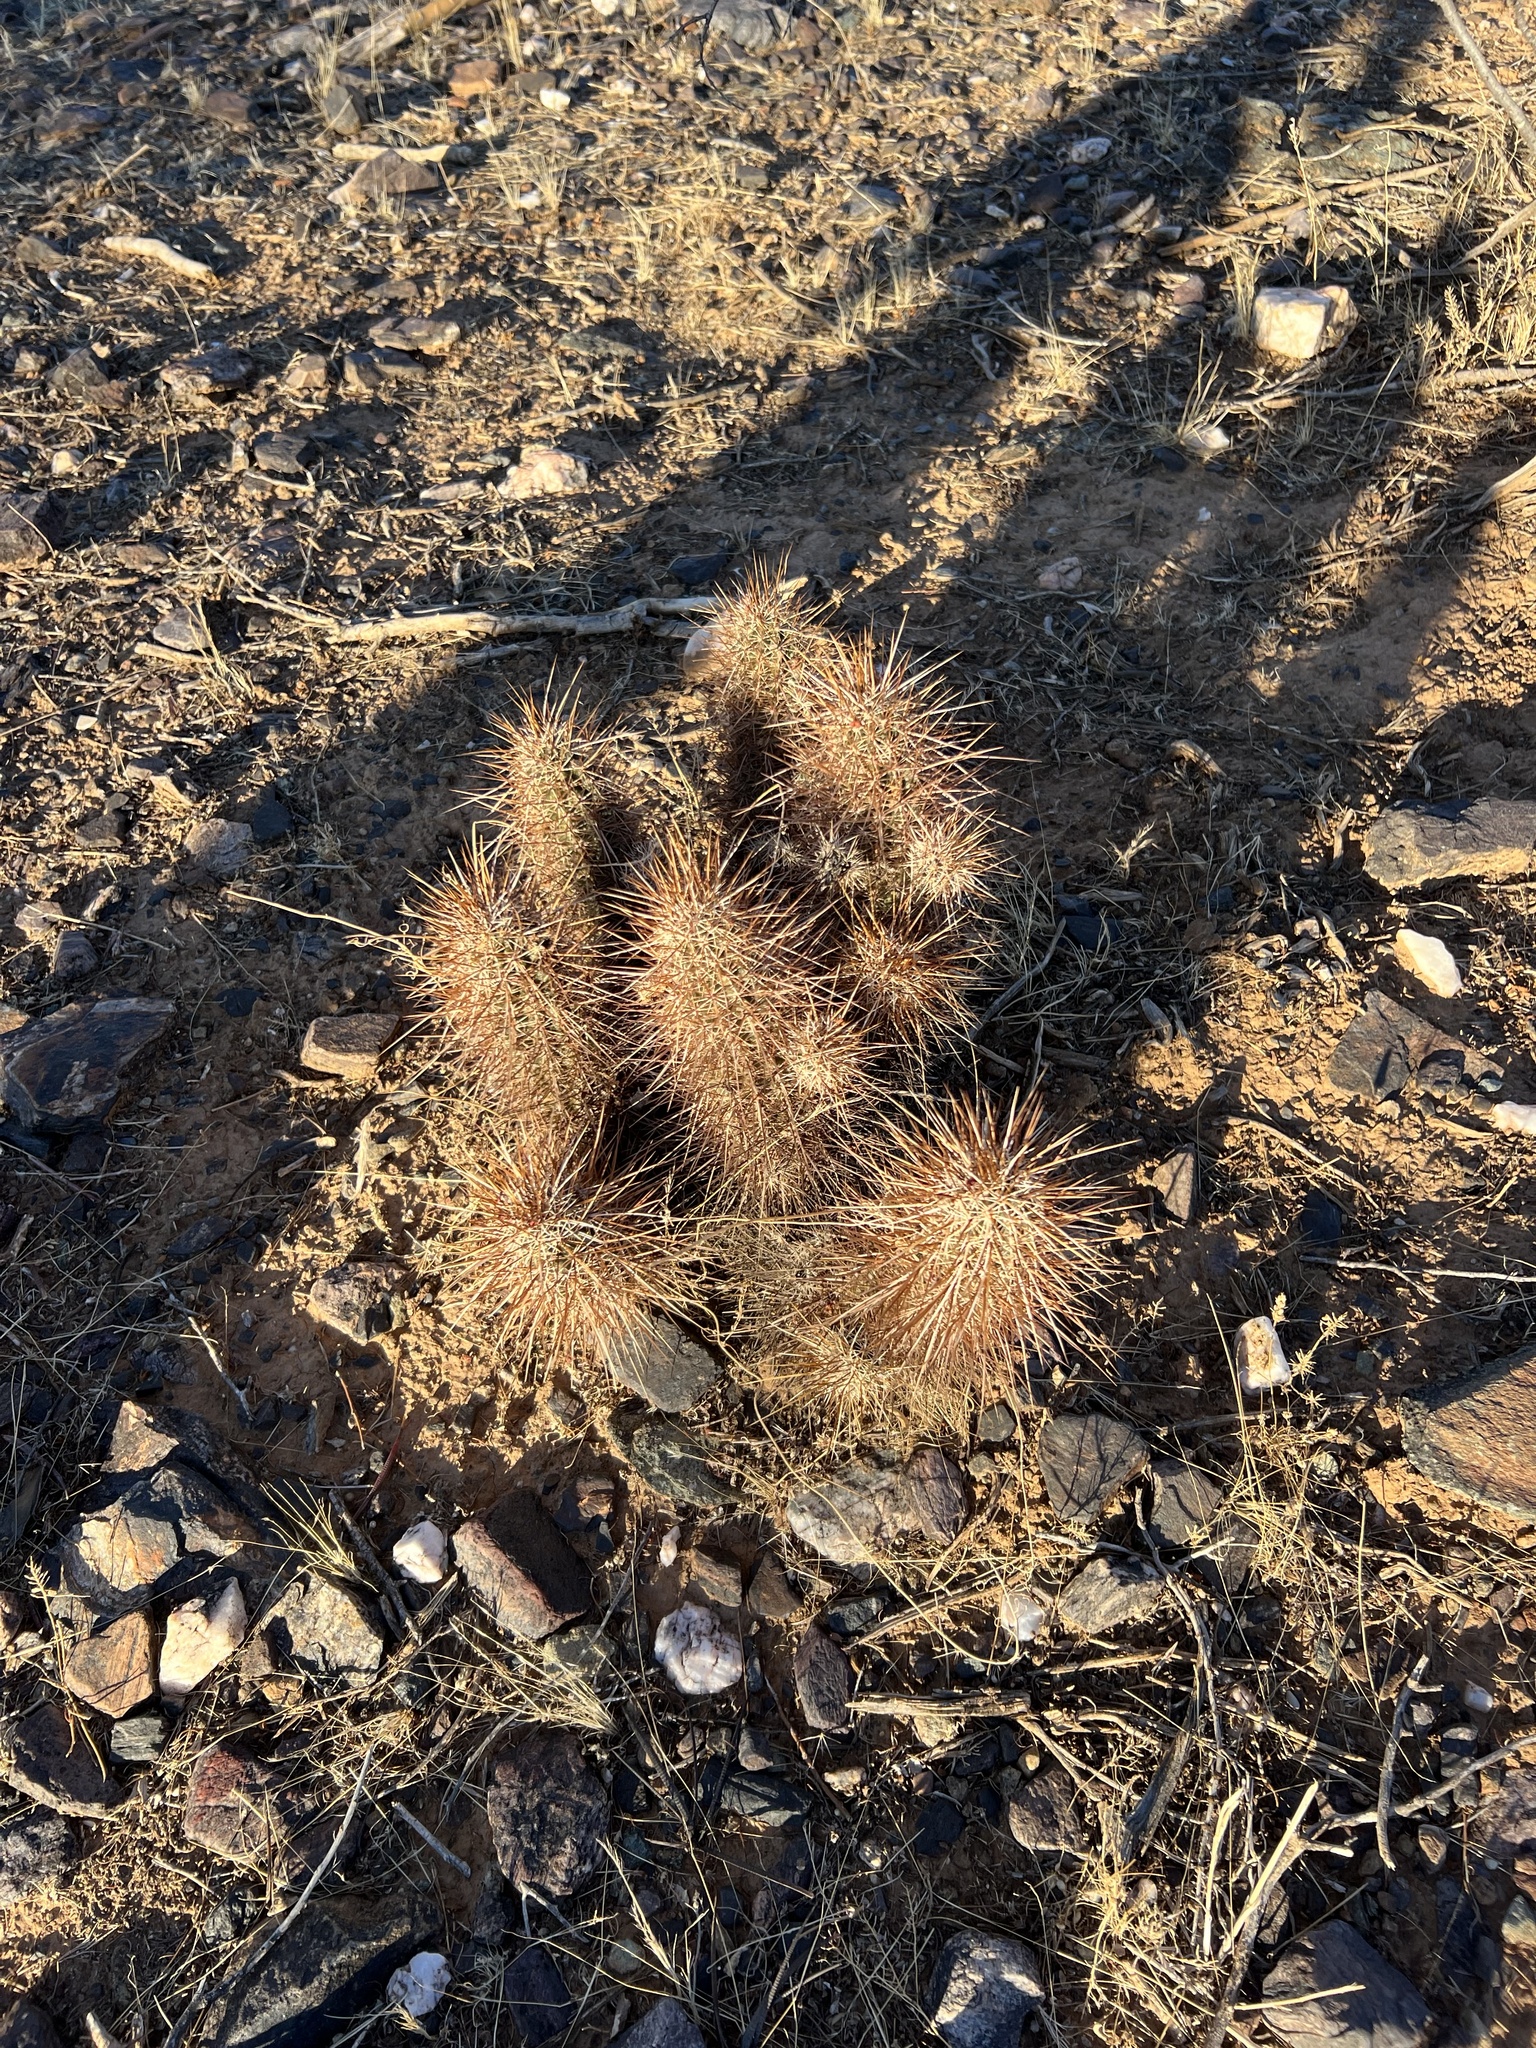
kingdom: Plantae
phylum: Tracheophyta
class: Magnoliopsida
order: Caryophyllales
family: Cactaceae
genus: Echinocereus
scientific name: Echinocereus engelmannii
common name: Engelmann's hedgehog cactus
